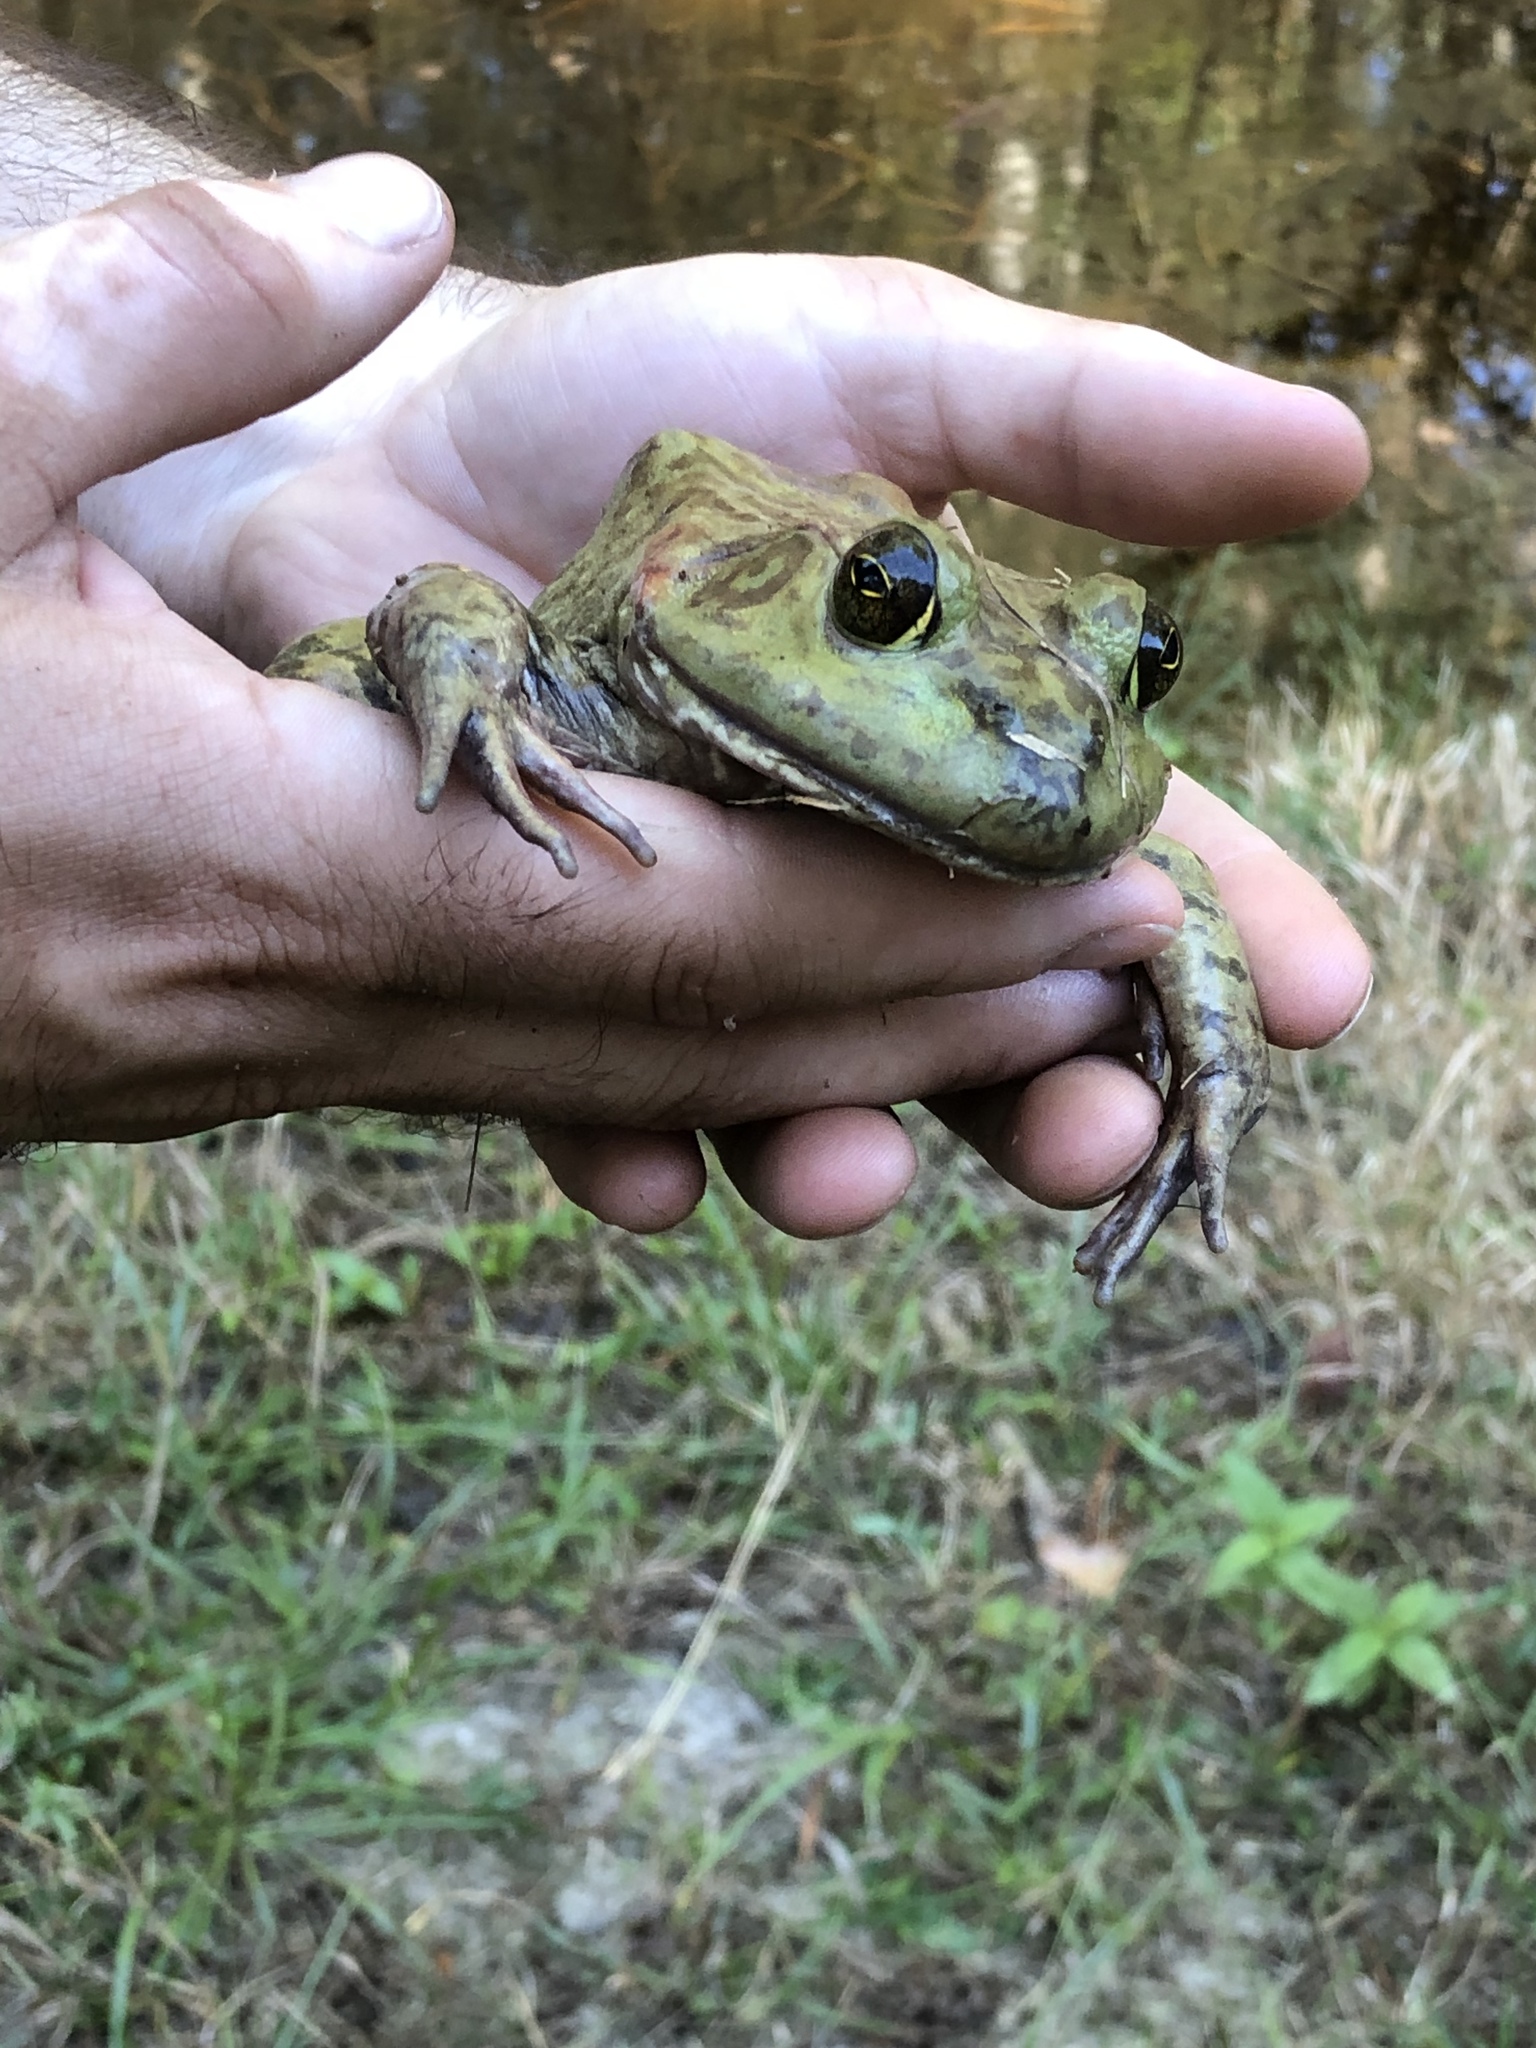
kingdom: Animalia
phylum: Chordata
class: Amphibia
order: Anura
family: Ranidae
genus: Lithobates
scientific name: Lithobates catesbeianus
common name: American bullfrog
